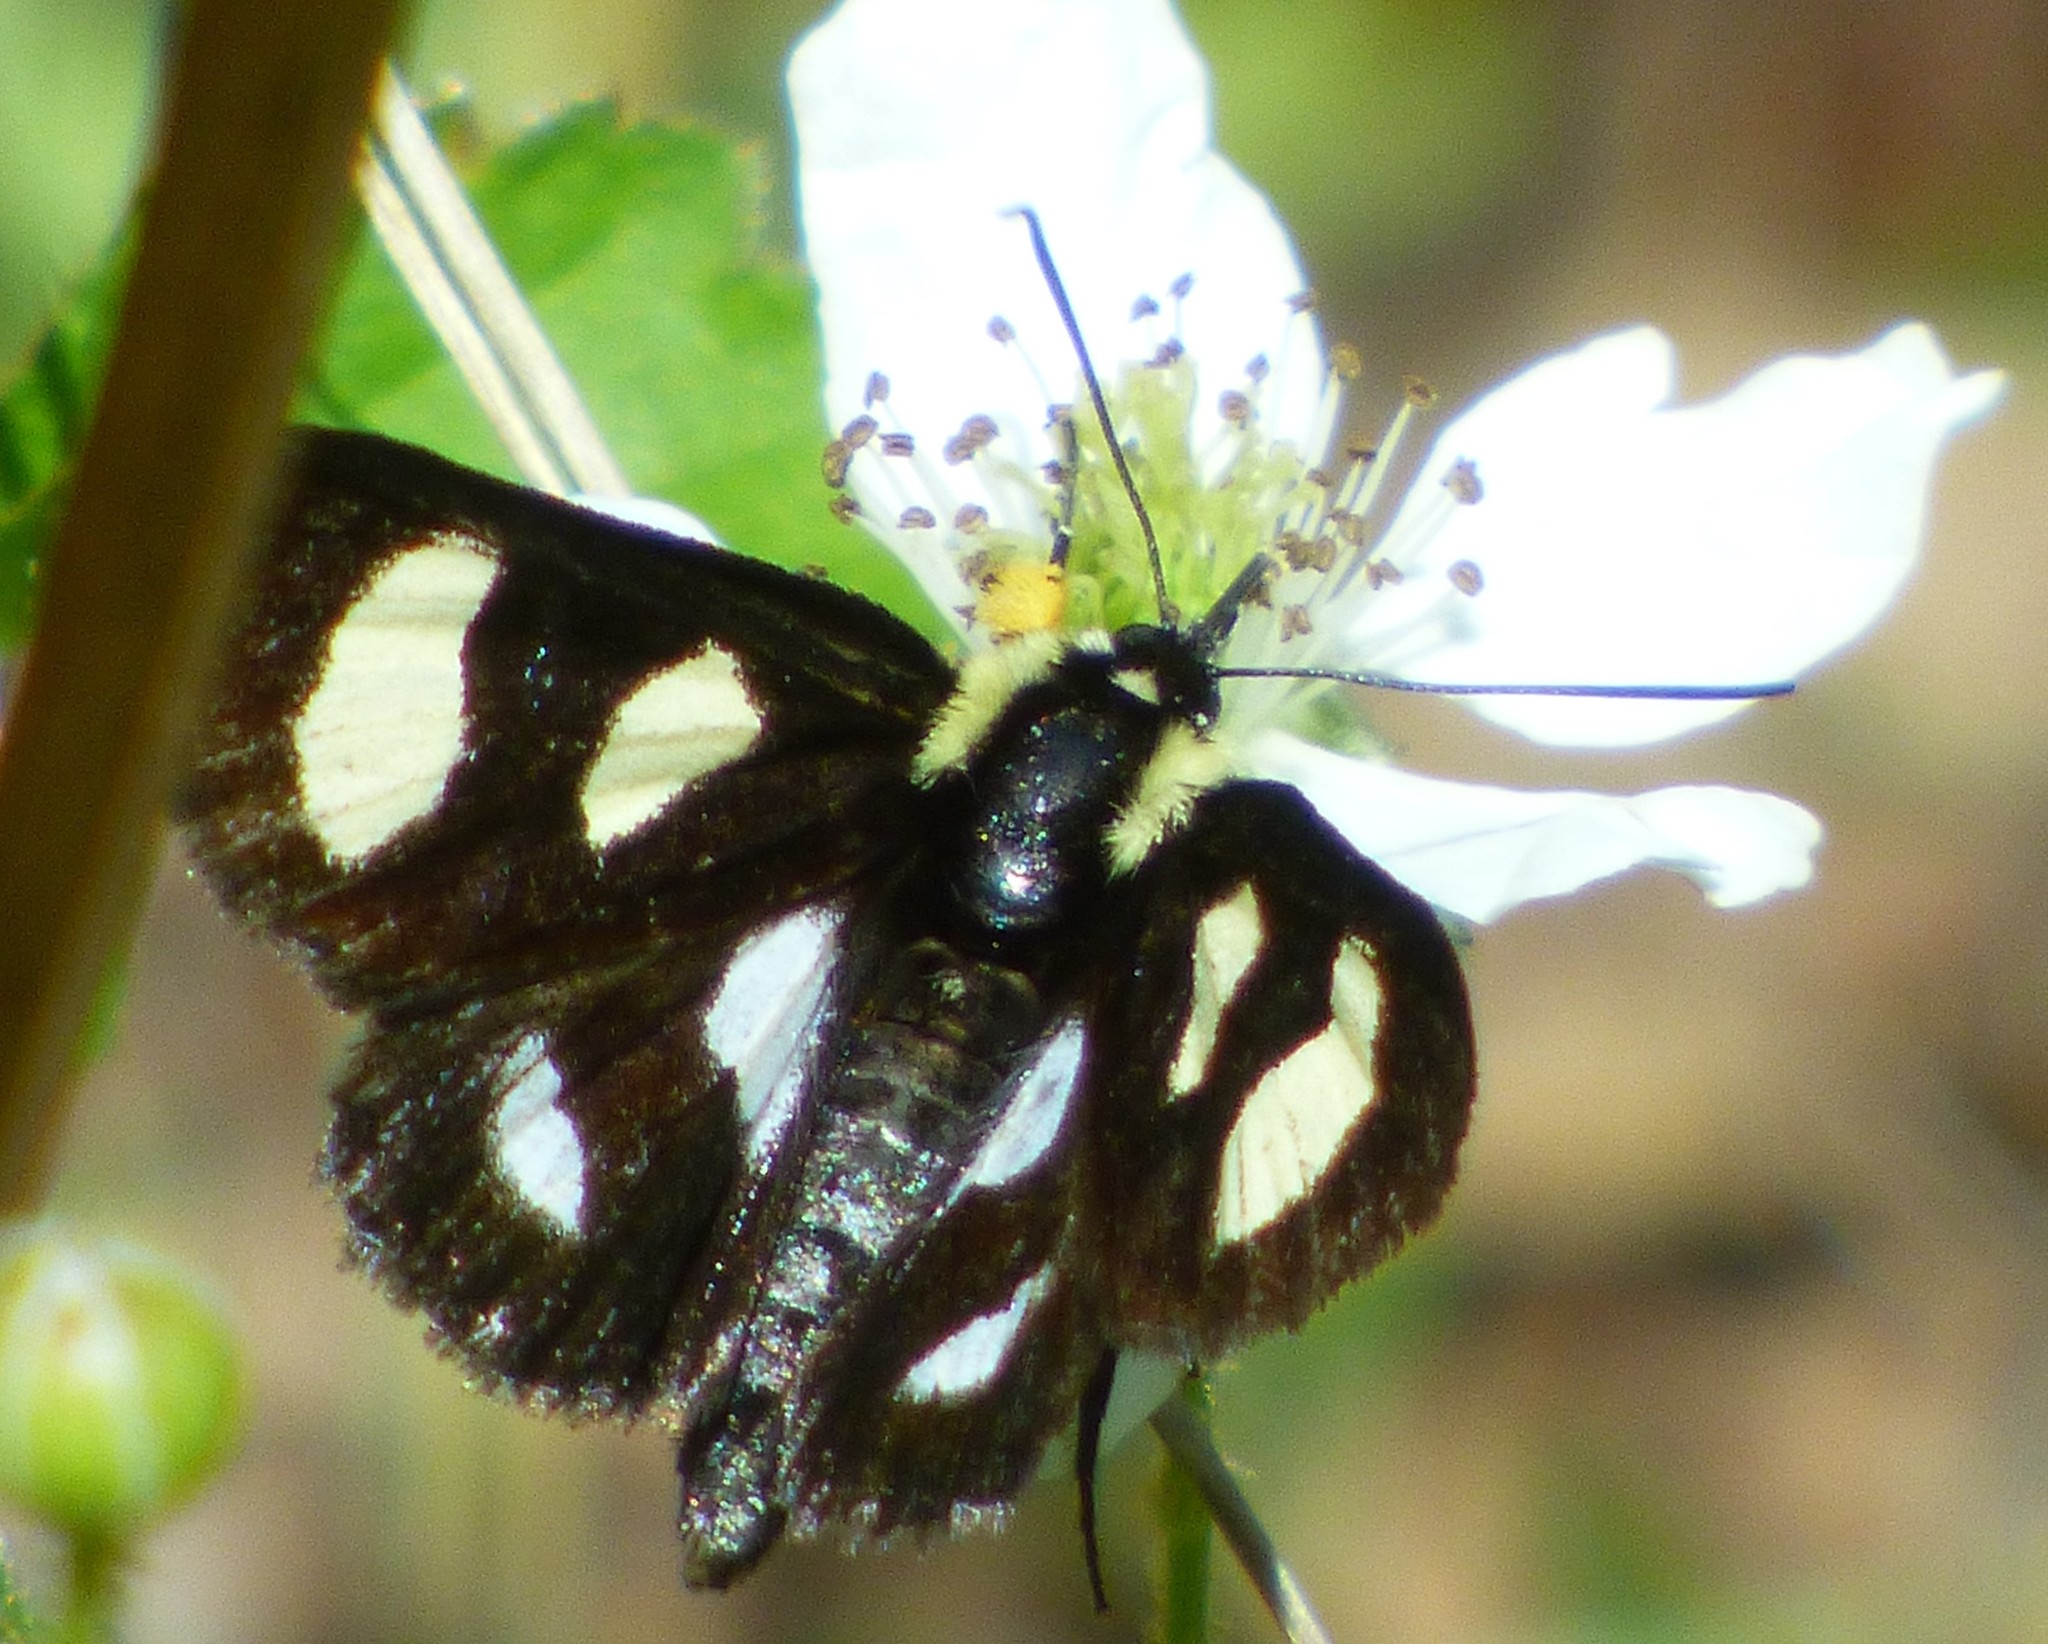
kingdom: Animalia
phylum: Arthropoda
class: Insecta
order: Lepidoptera
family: Noctuidae
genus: Alypia
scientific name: Alypia octomaculata
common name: Eight-spotted forester
